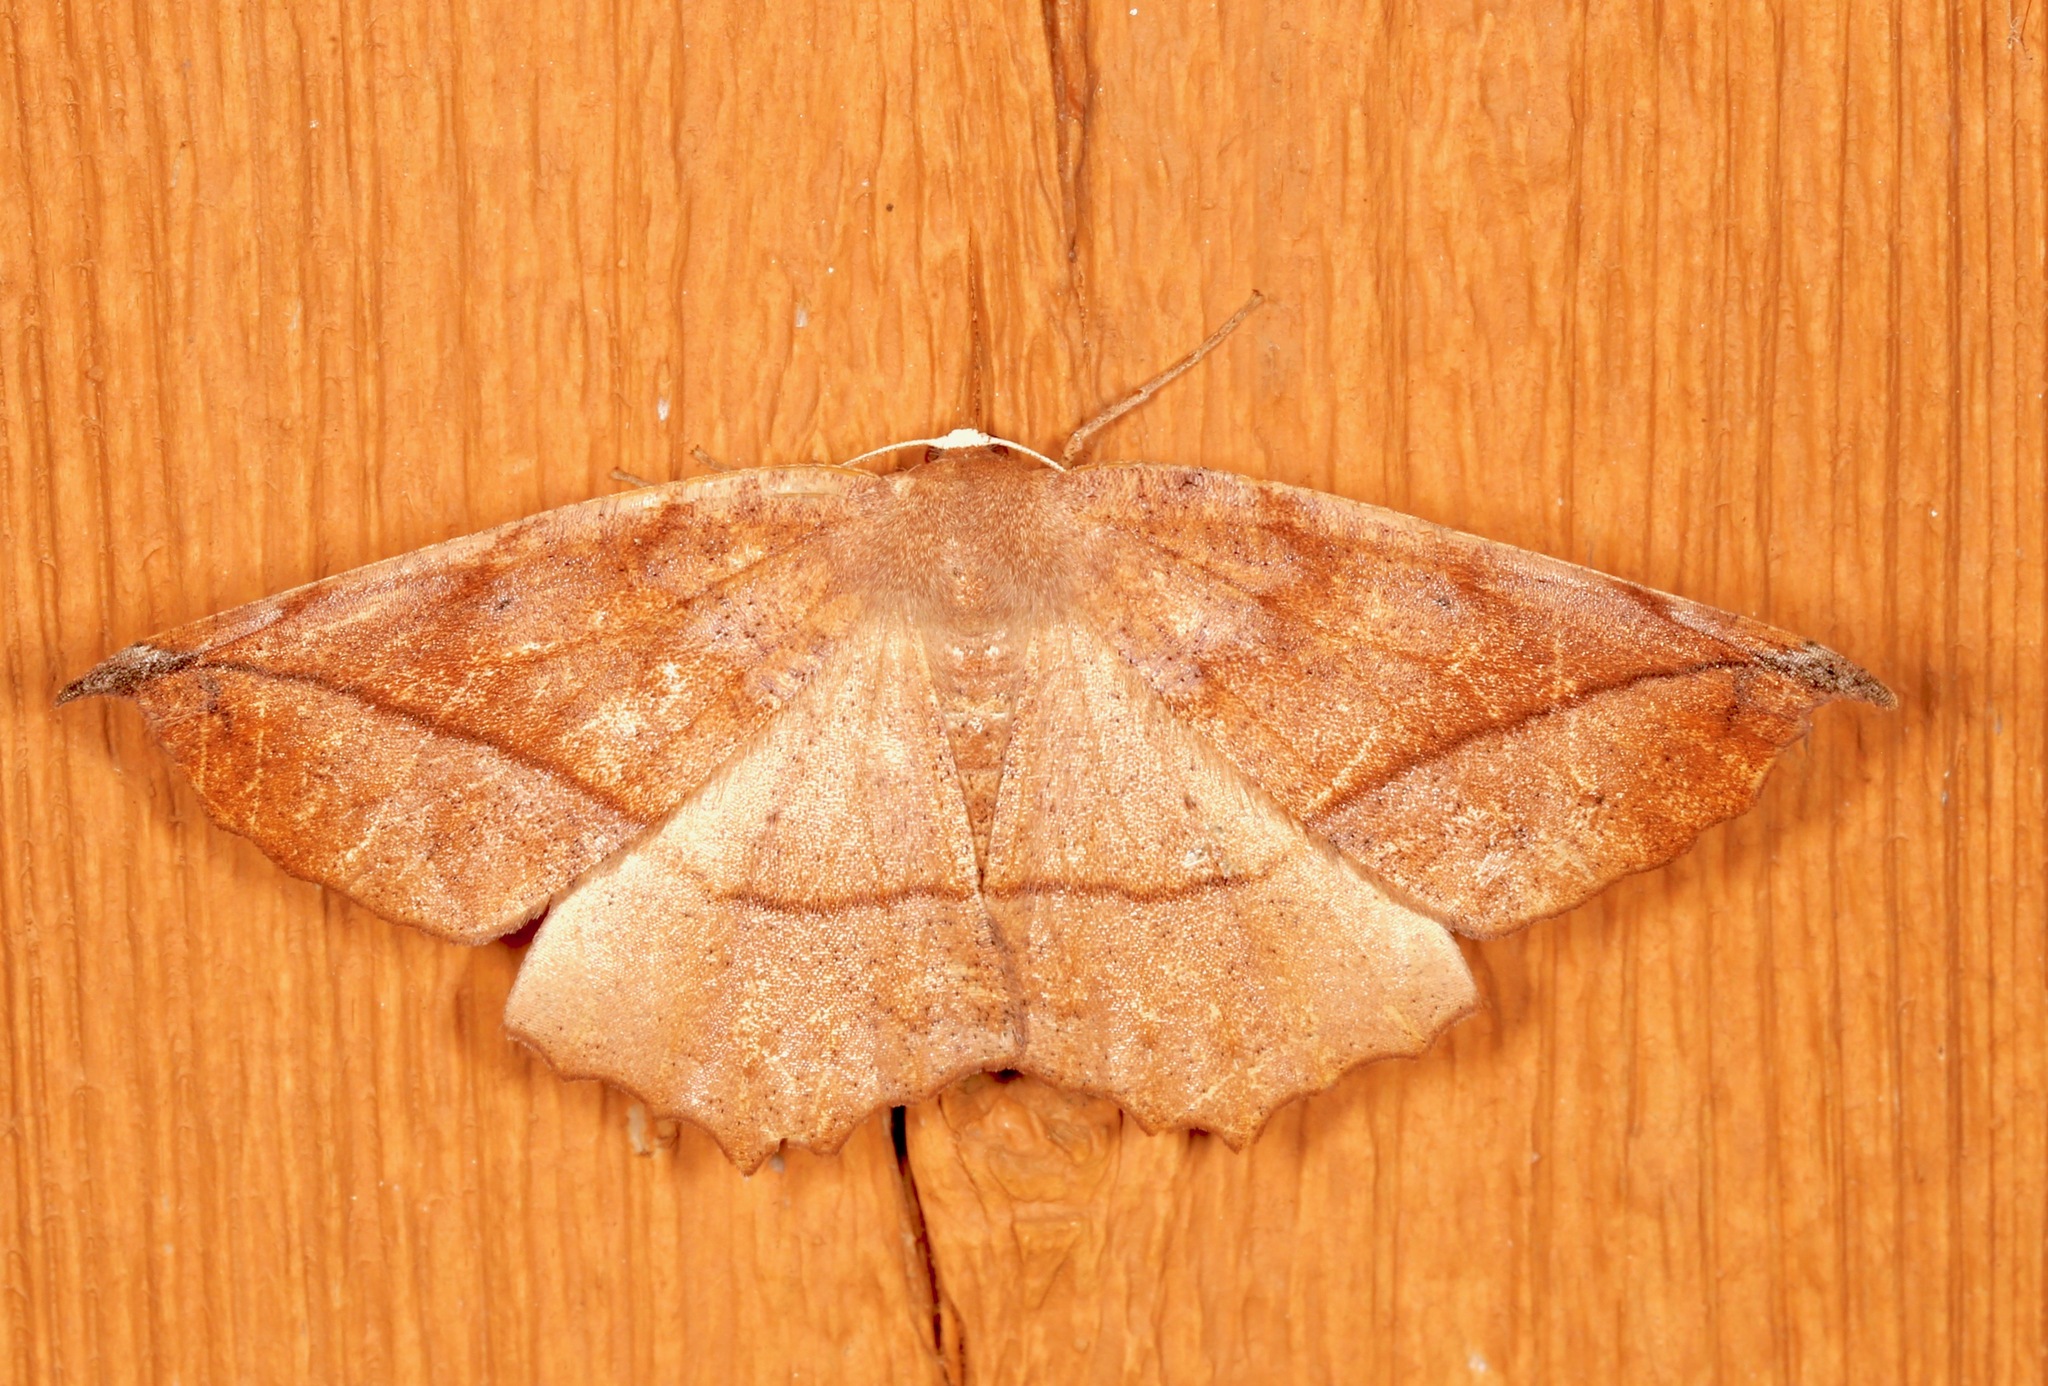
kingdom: Animalia
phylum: Arthropoda
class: Insecta
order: Lepidoptera
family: Geometridae
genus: Eutrapela
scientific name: Eutrapela clemataria
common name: Curved-toothed geometer
